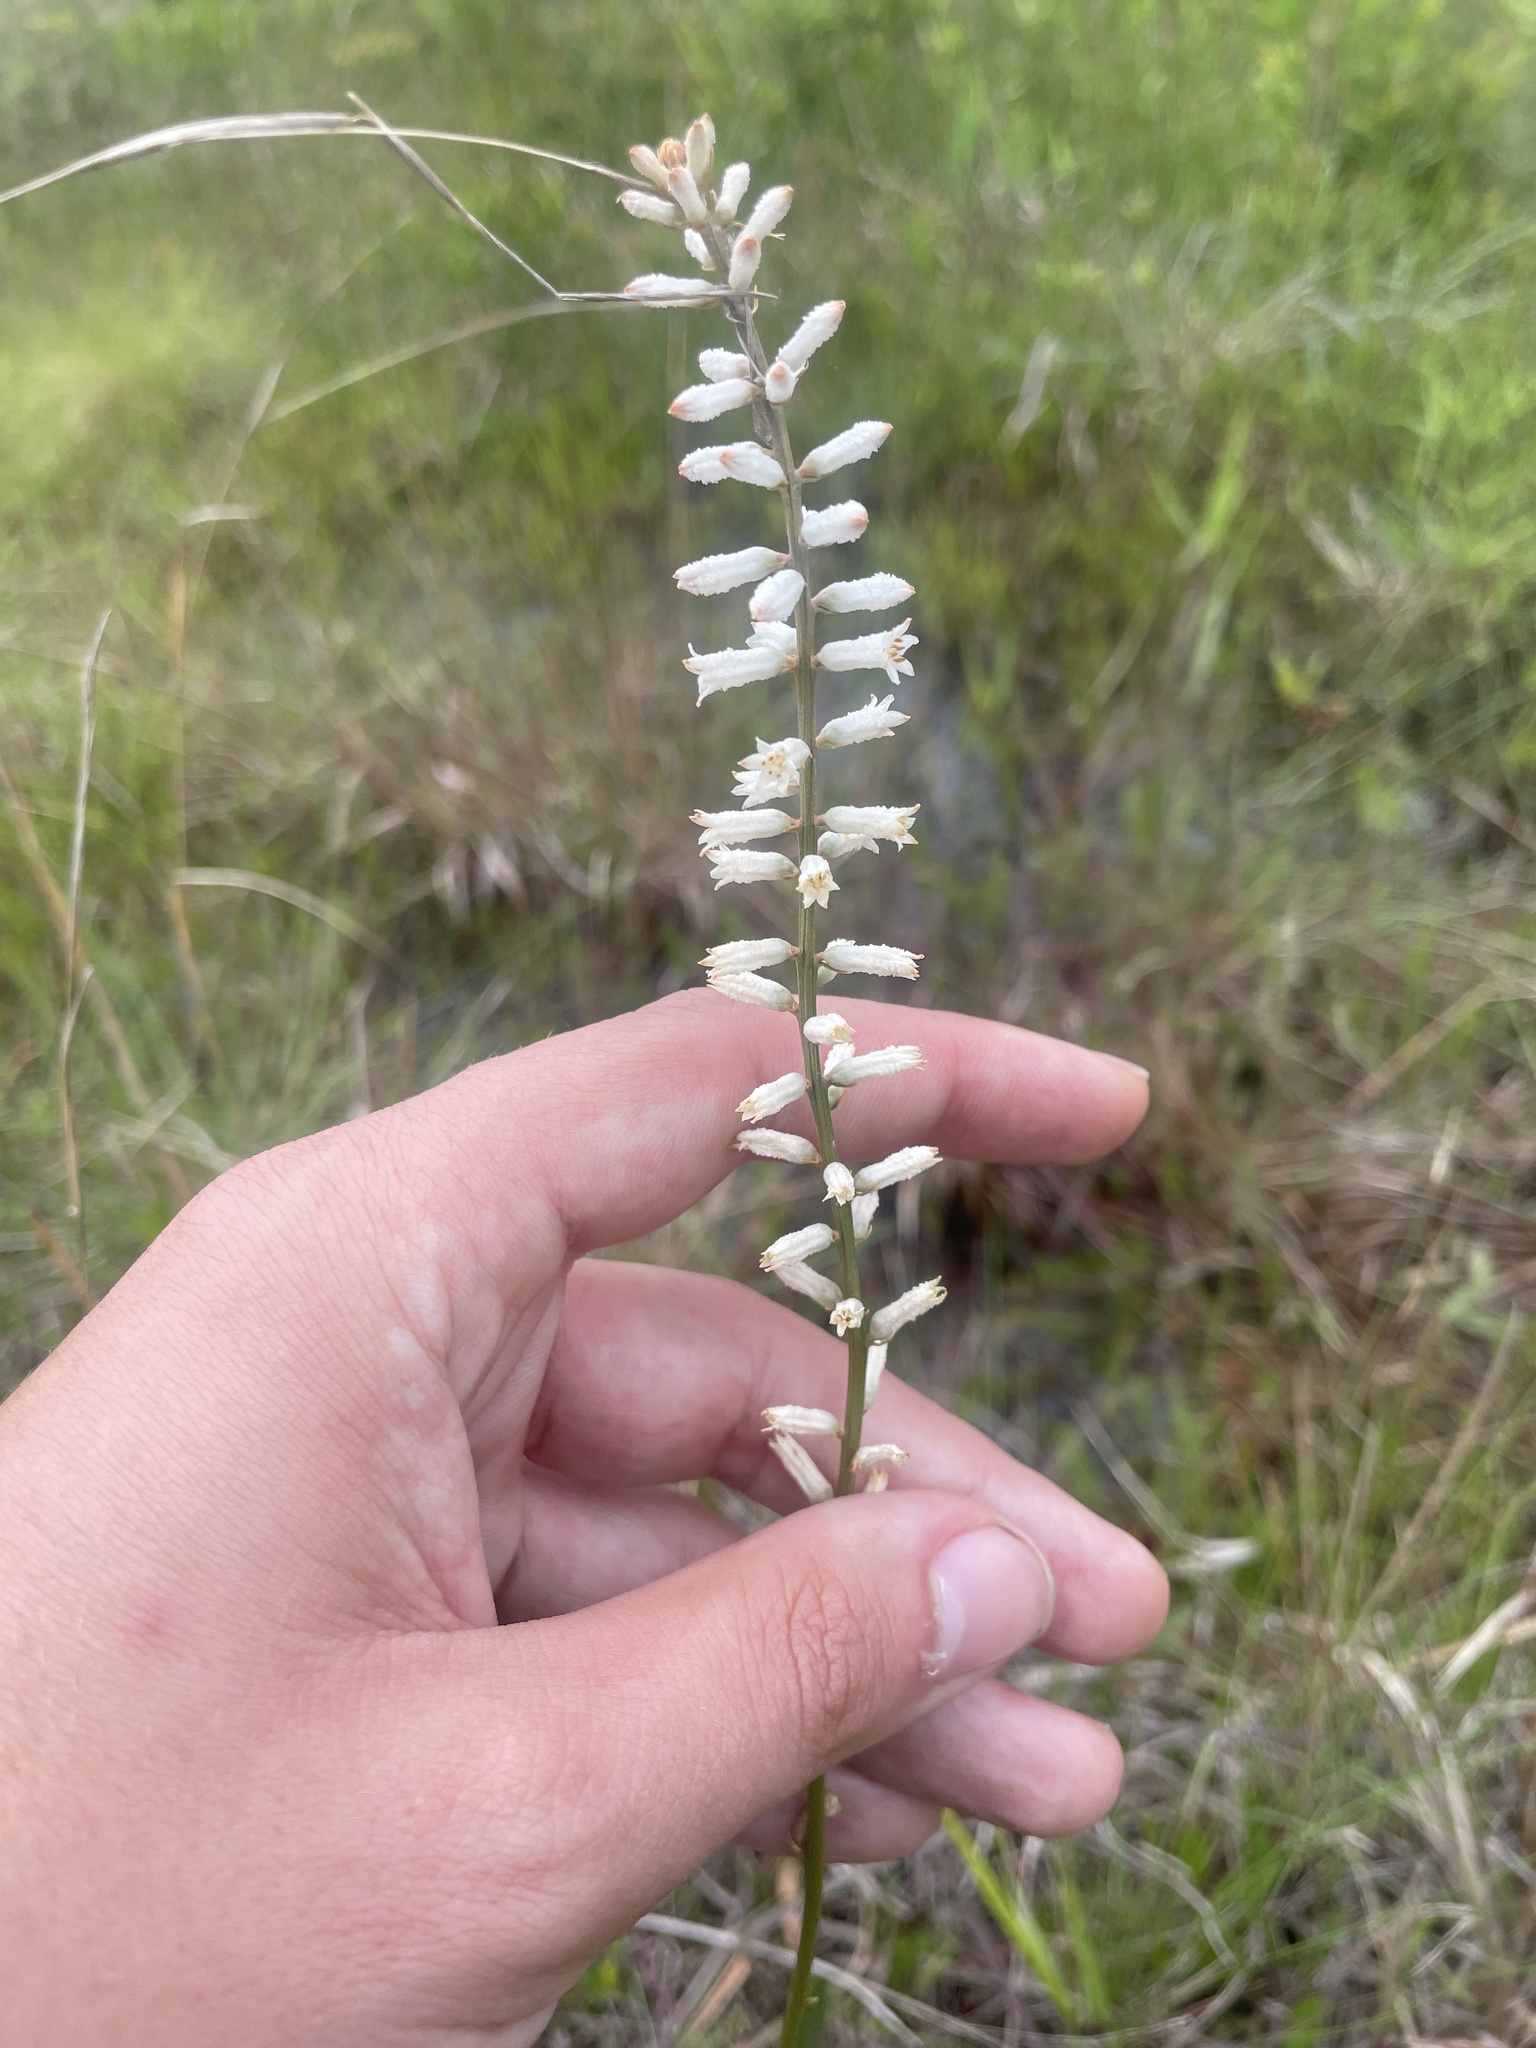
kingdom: Plantae
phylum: Tracheophyta
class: Liliopsida
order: Dioscoreales
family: Nartheciaceae
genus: Aletris
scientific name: Aletris farinosa
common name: Colicroot
